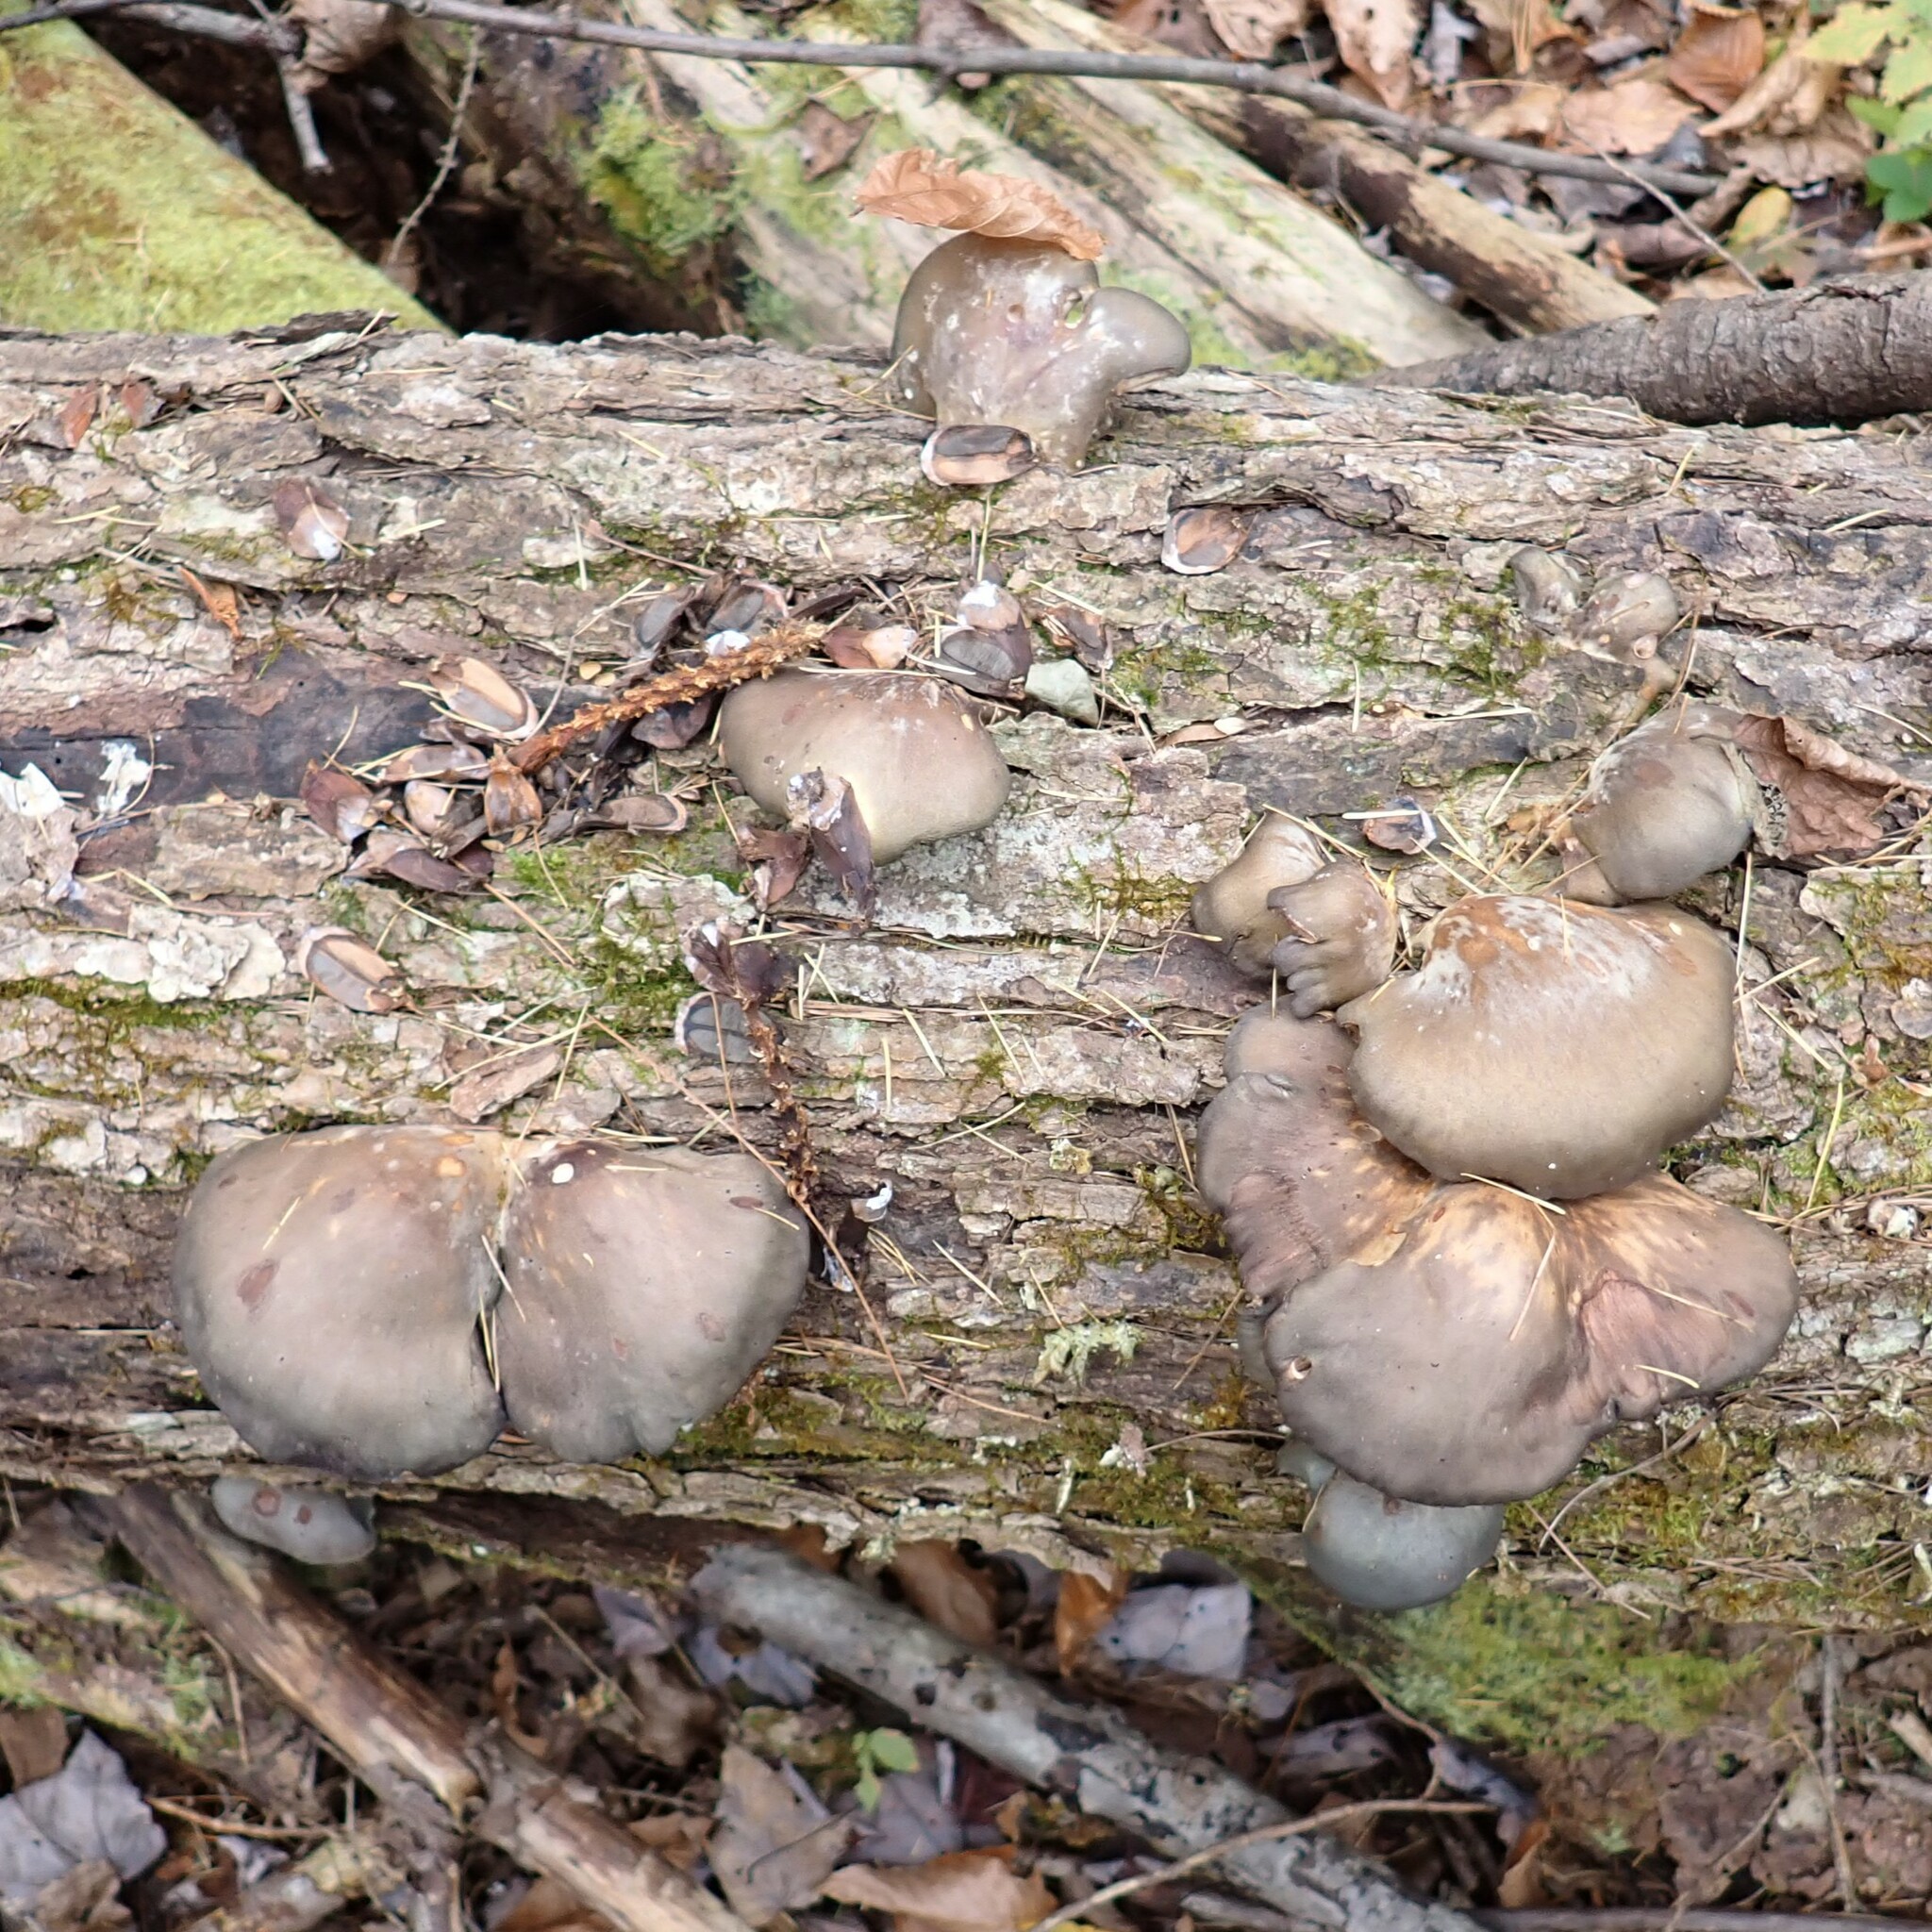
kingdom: Fungi
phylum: Basidiomycota
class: Agaricomycetes
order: Agaricales
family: Sarcomyxaceae
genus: Sarcomyxa
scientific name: Sarcomyxa serotina
